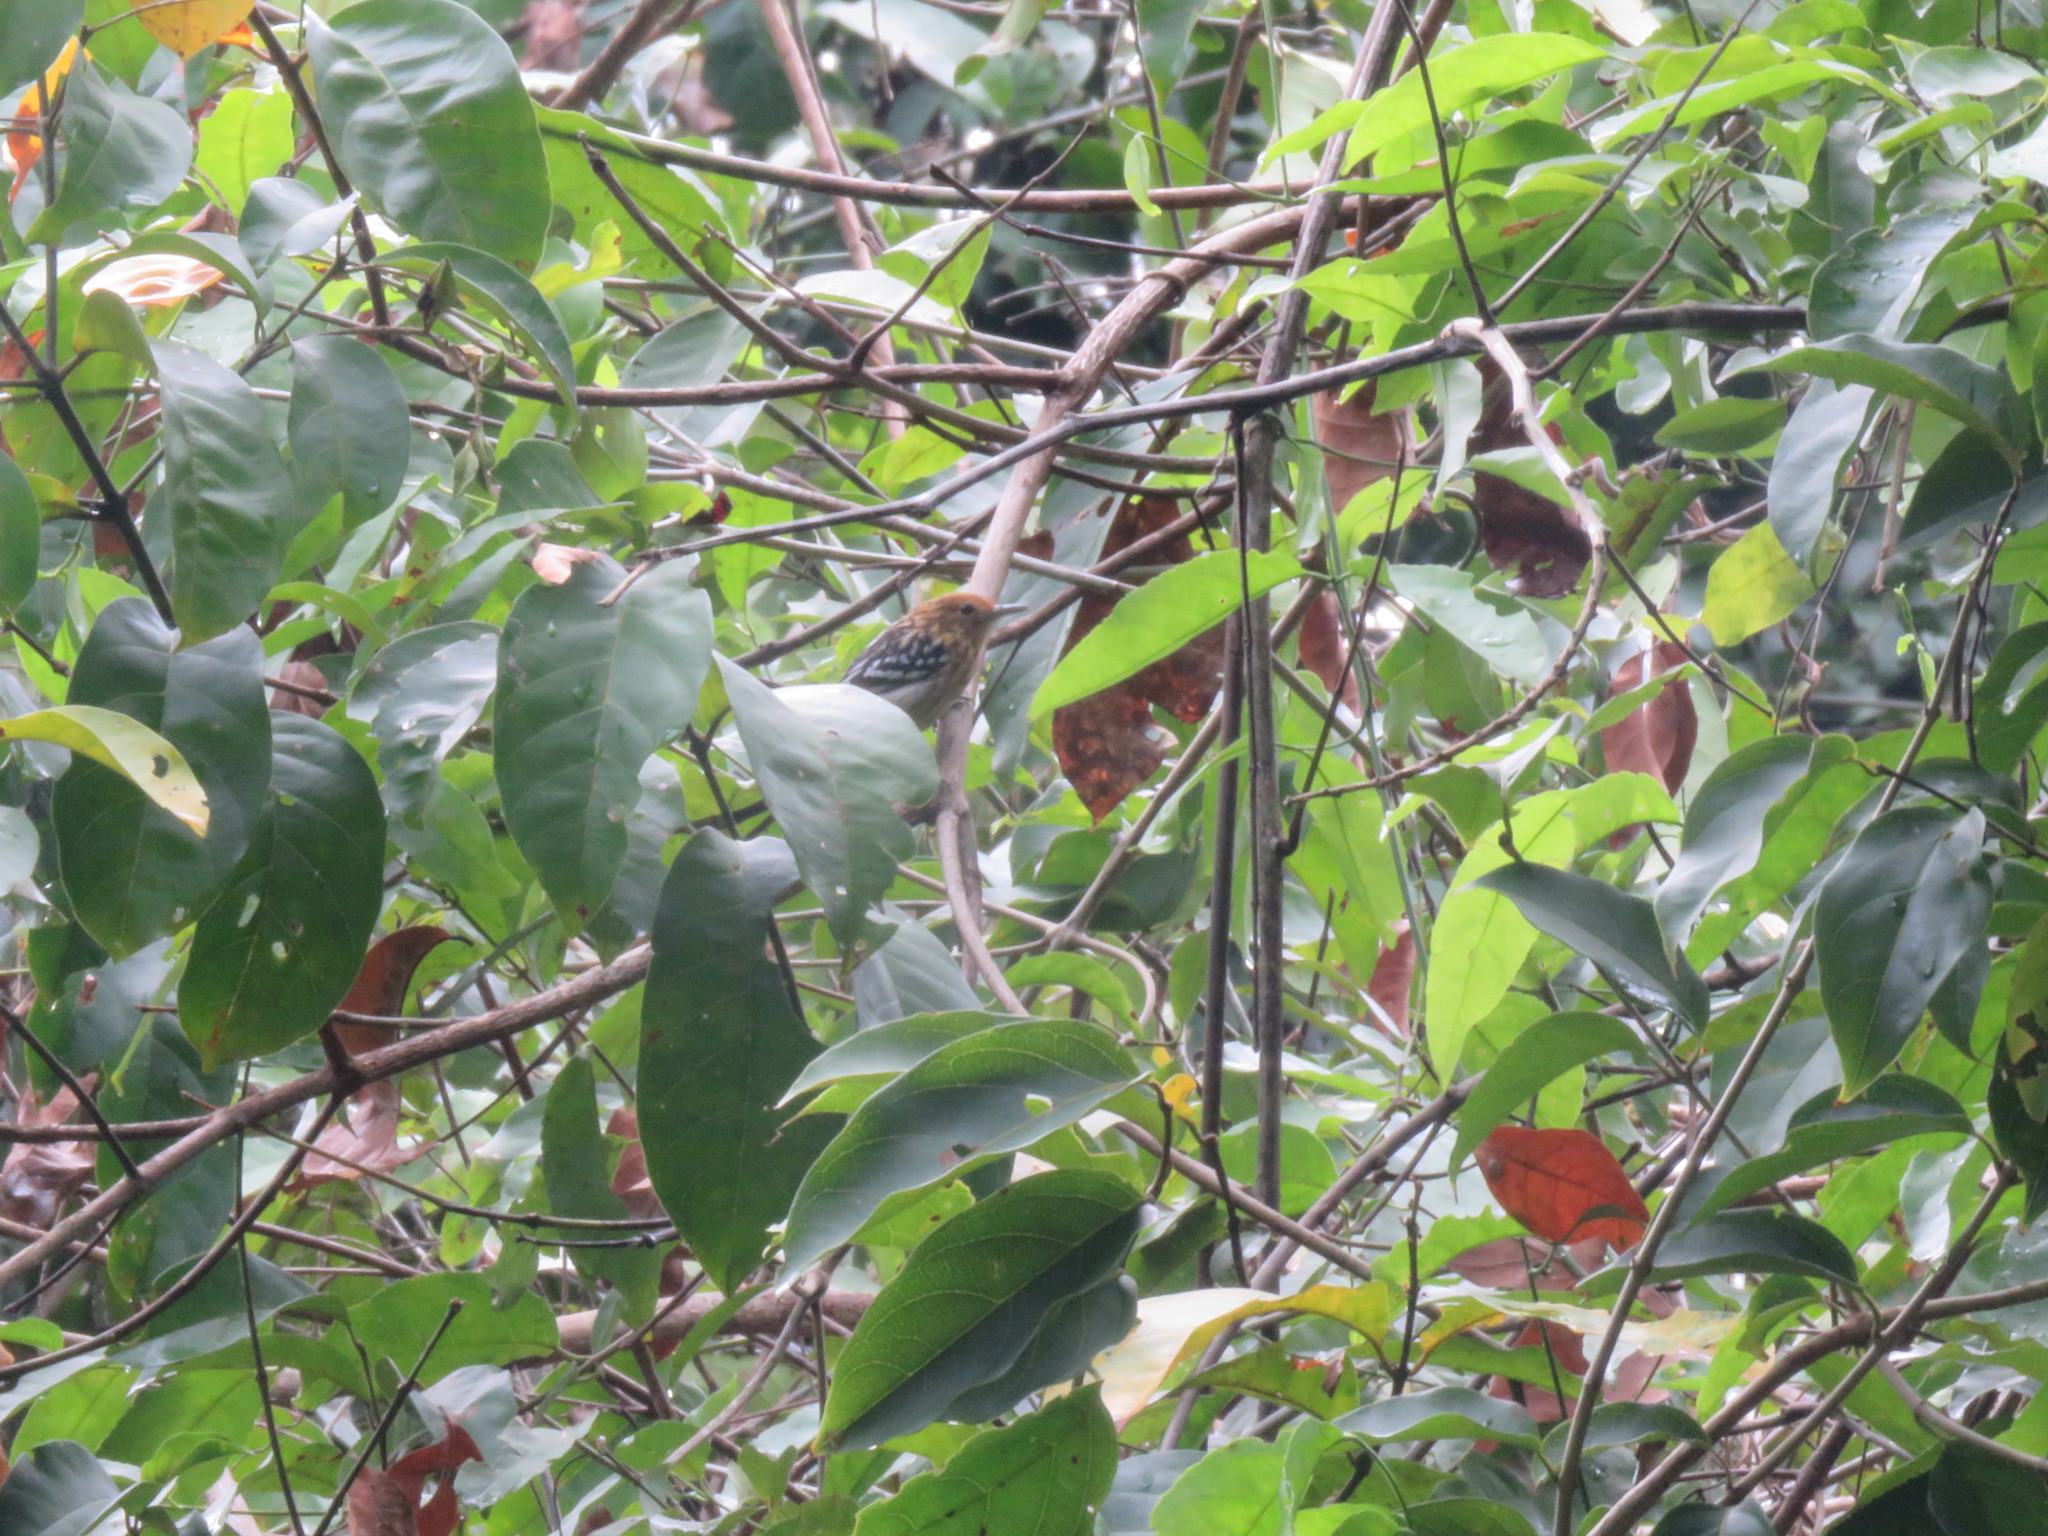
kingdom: Animalia
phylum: Chordata
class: Aves
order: Passeriformes
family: Thamnophilidae
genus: Myrmotherula
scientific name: Myrmotherula multostriata
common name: Amazonian streaked antwren
